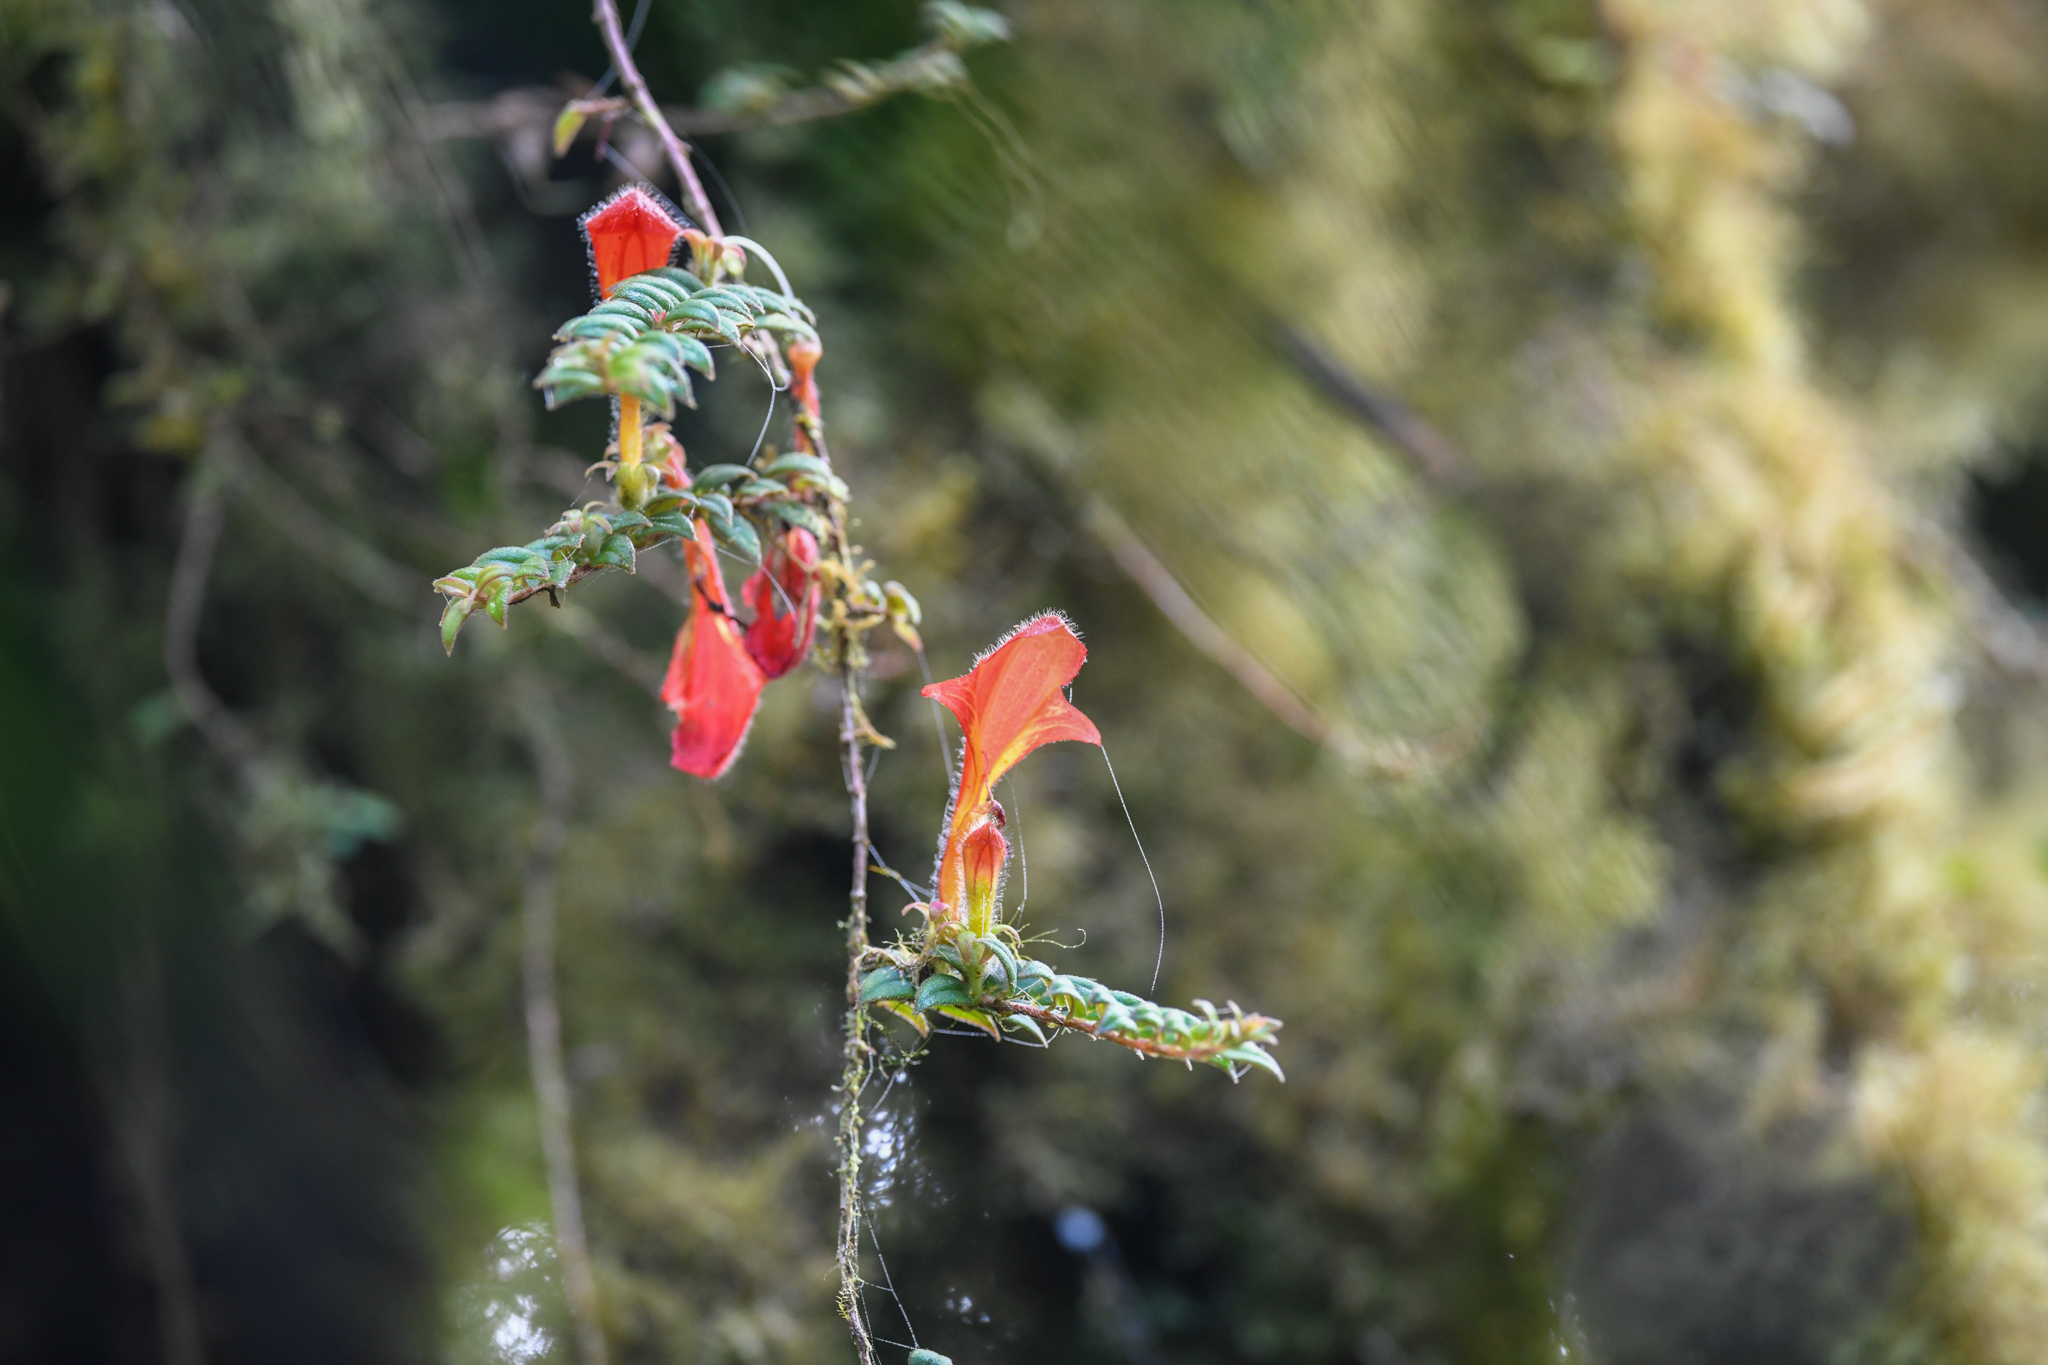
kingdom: Plantae
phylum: Tracheophyta
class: Magnoliopsida
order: Lamiales
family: Gesneriaceae
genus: Columnea
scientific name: Columnea microcalyx
